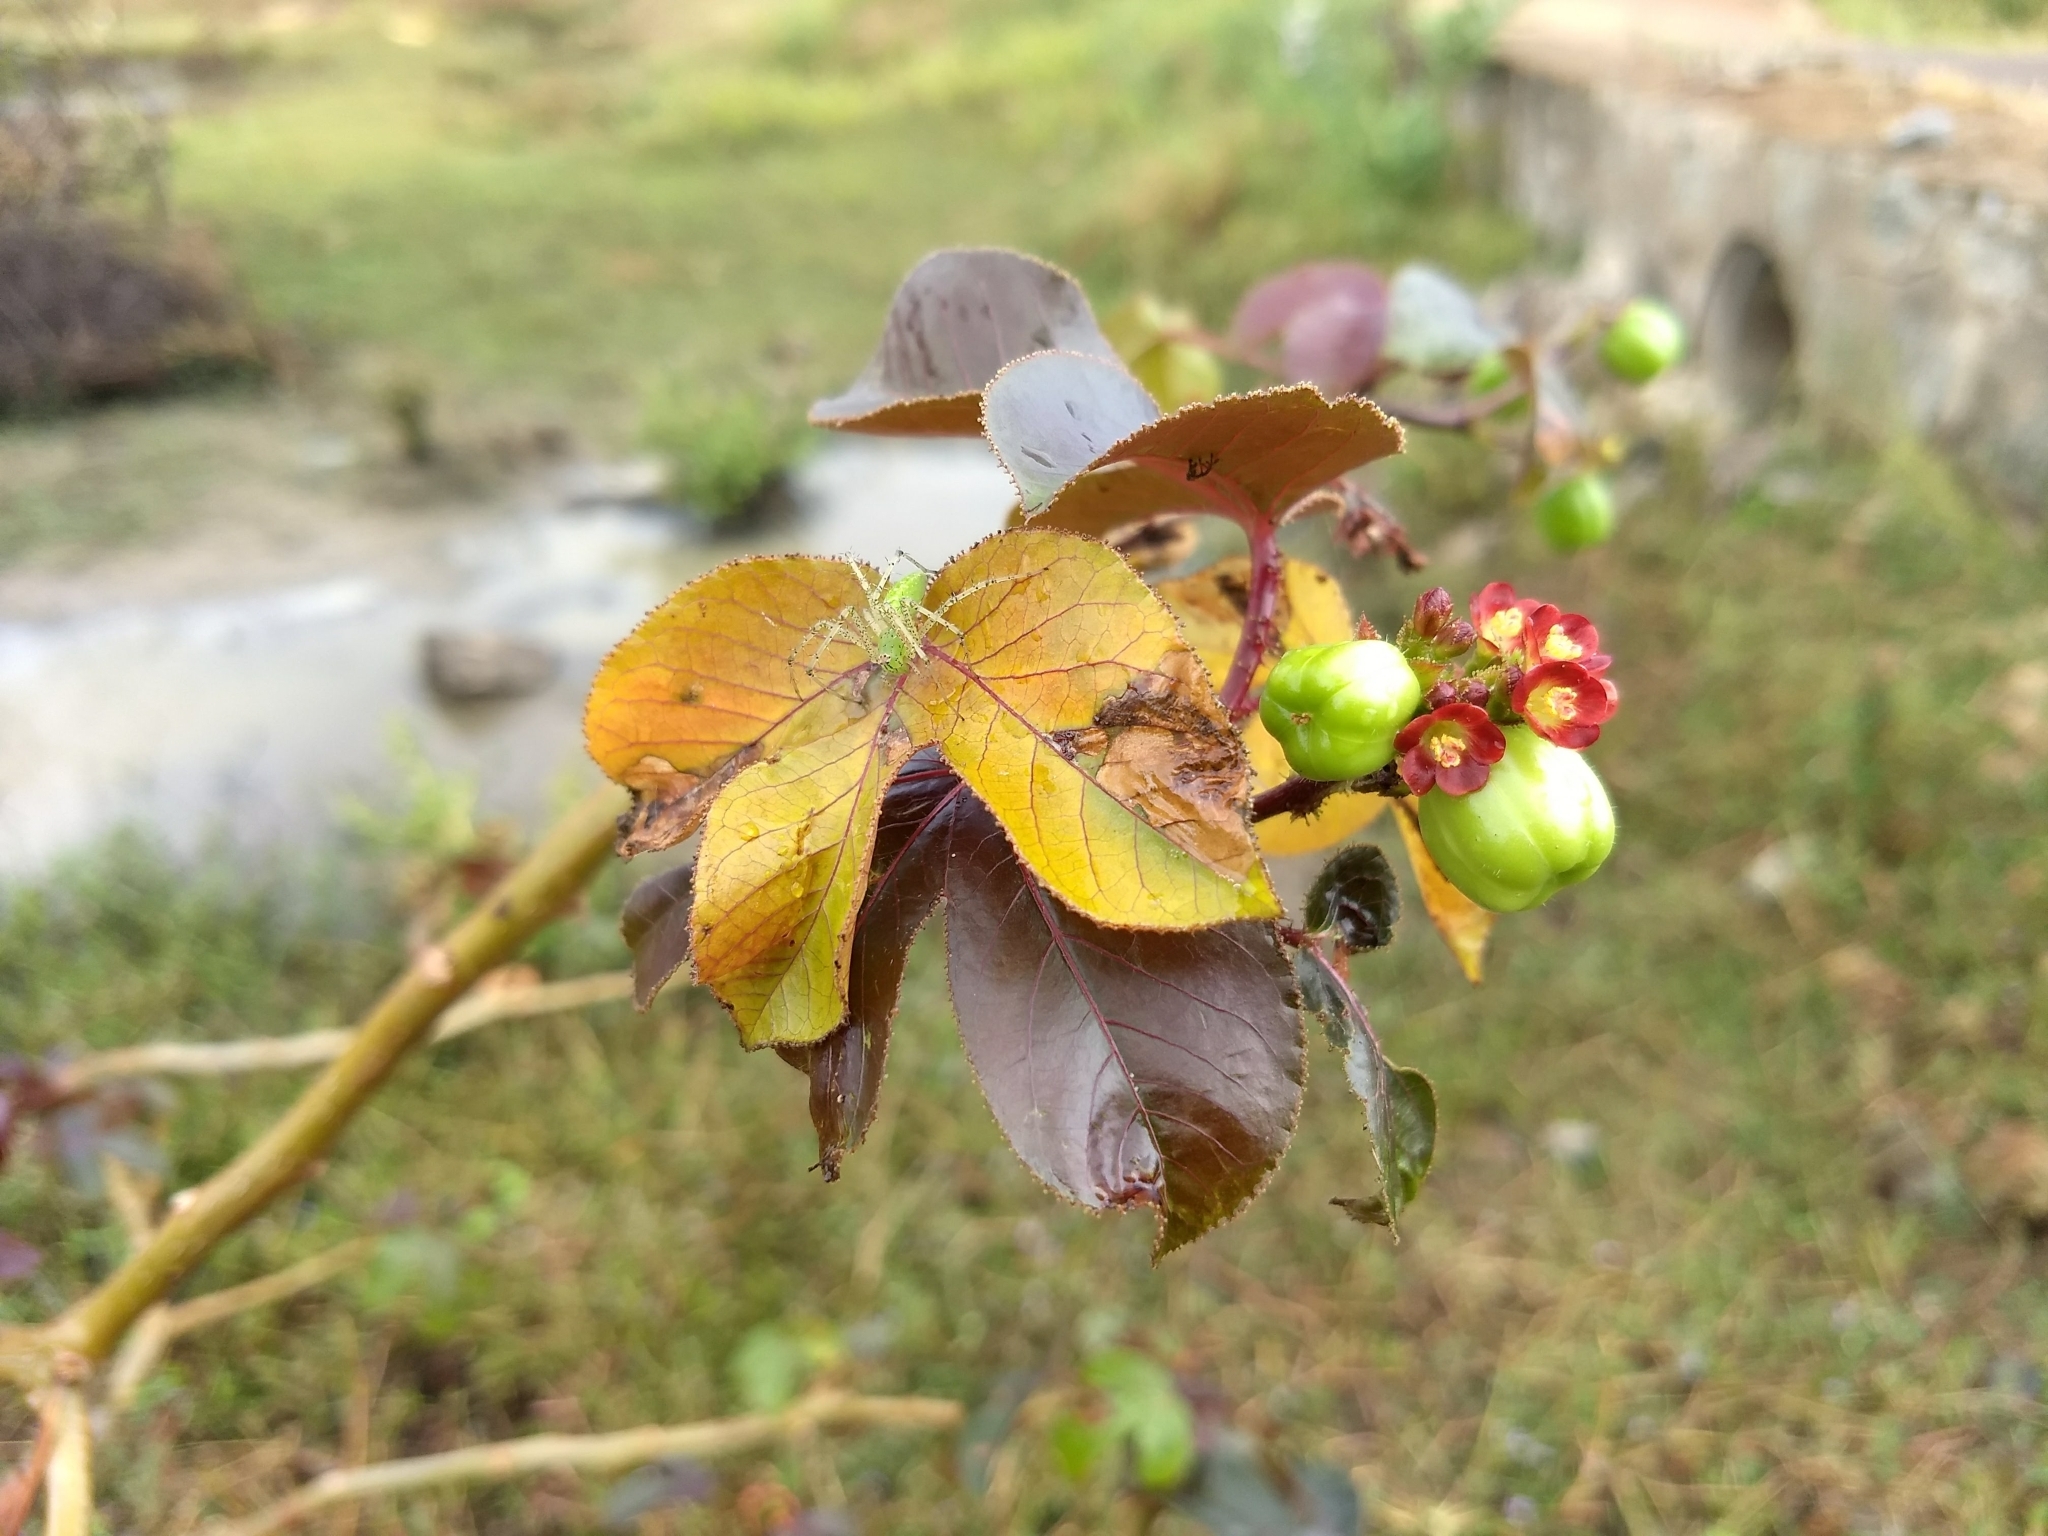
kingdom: Plantae
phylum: Tracheophyta
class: Magnoliopsida
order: Malpighiales
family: Euphorbiaceae
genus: Jatropha
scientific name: Jatropha gossypiifolia
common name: Bellyache bush
